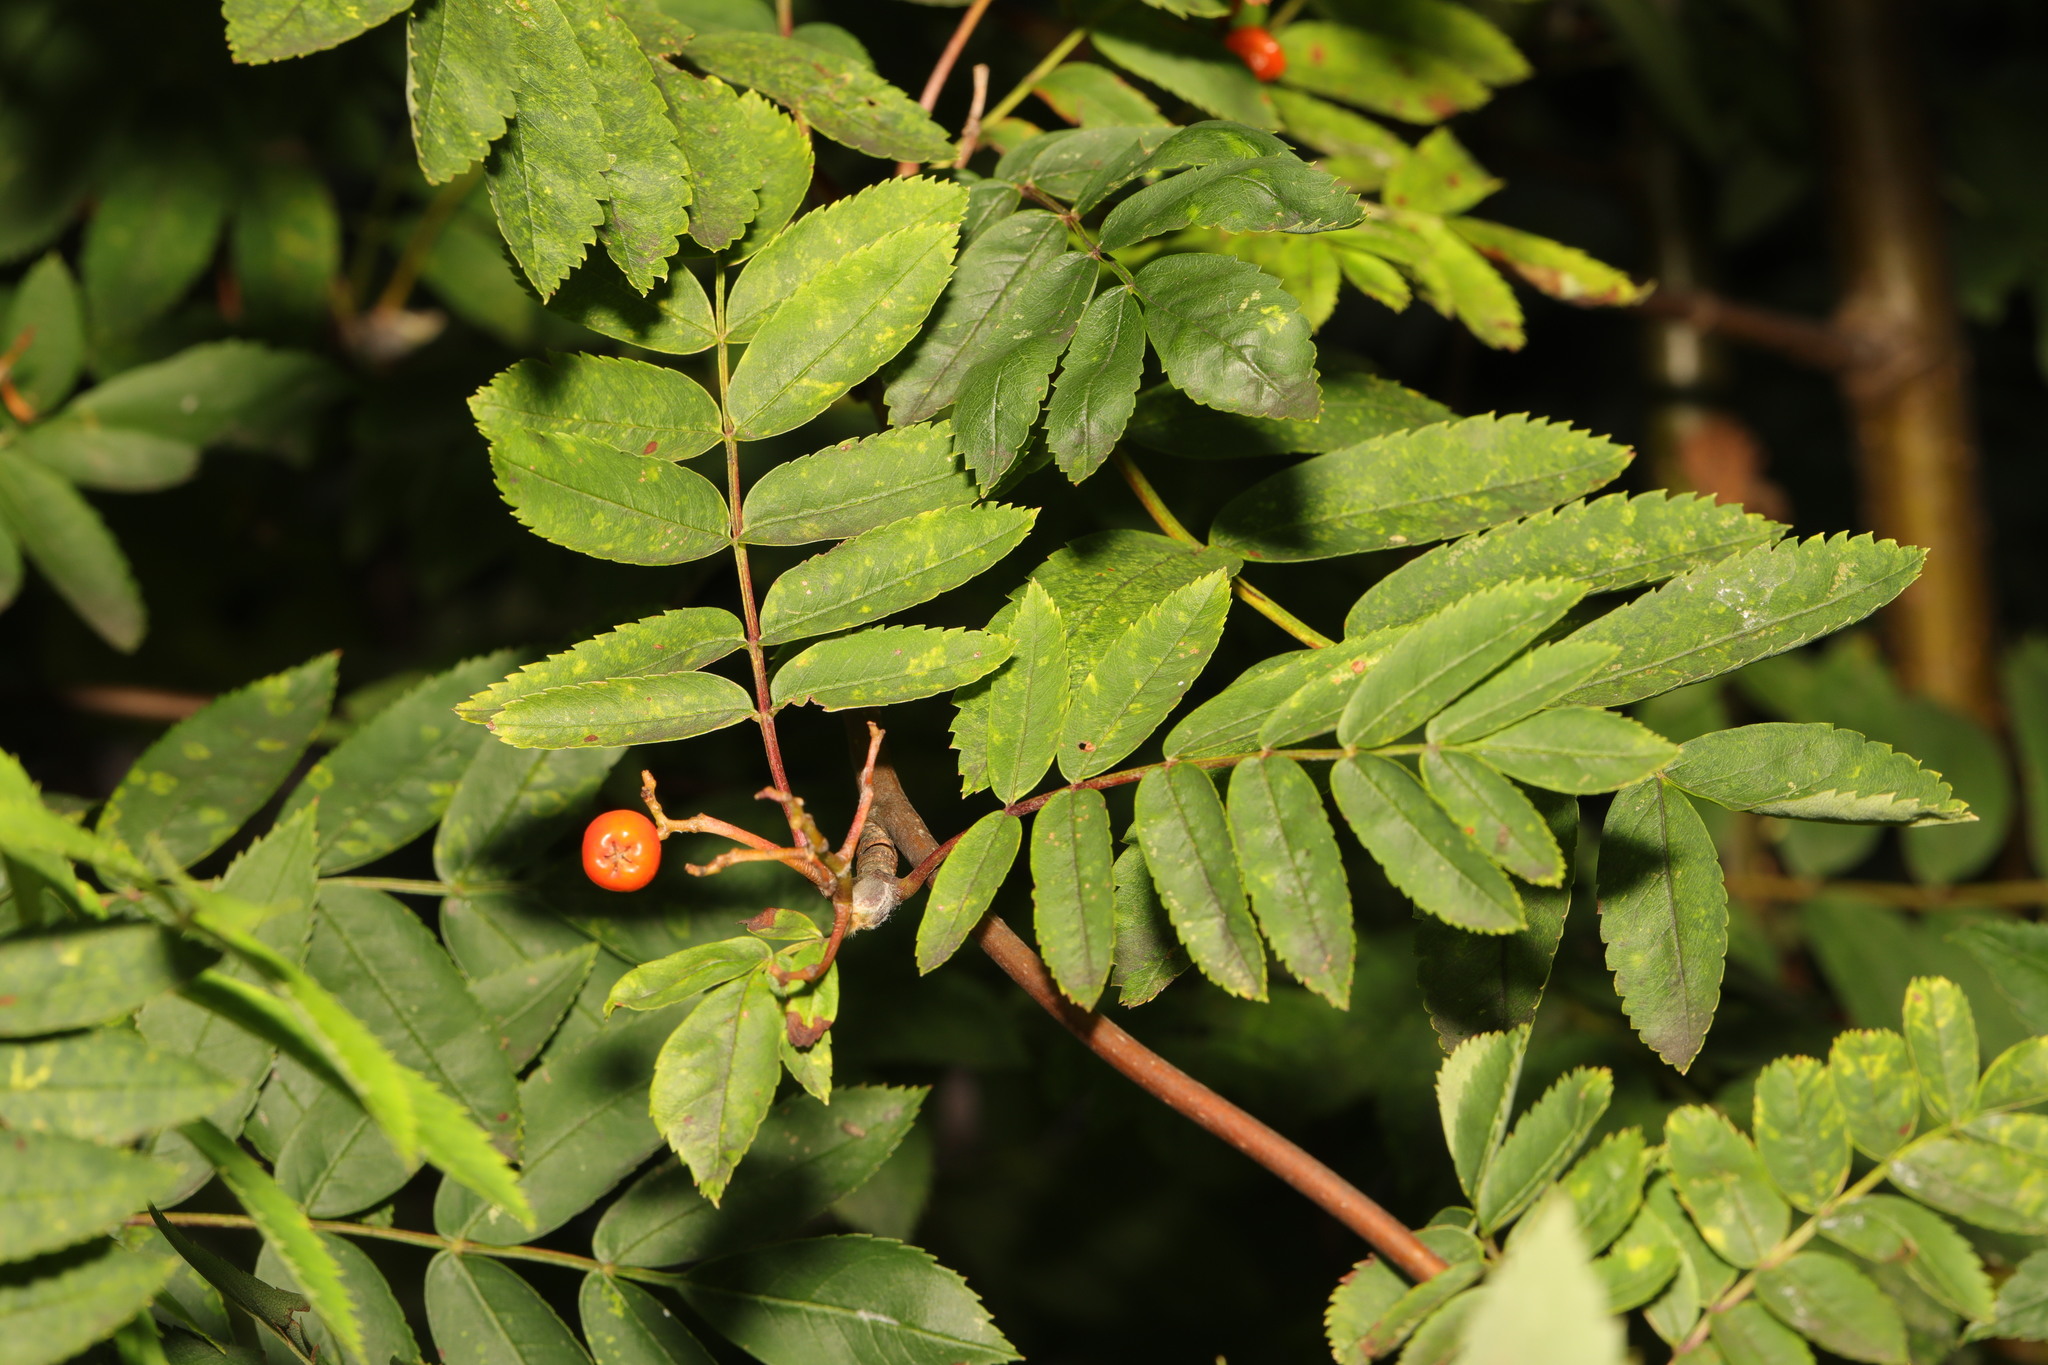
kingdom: Viruses
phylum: Negarnaviricota
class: Ellioviricetes
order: Bunyavirales
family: Fimoviridae
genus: Emaravirus
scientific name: Emaravirus sorbi
